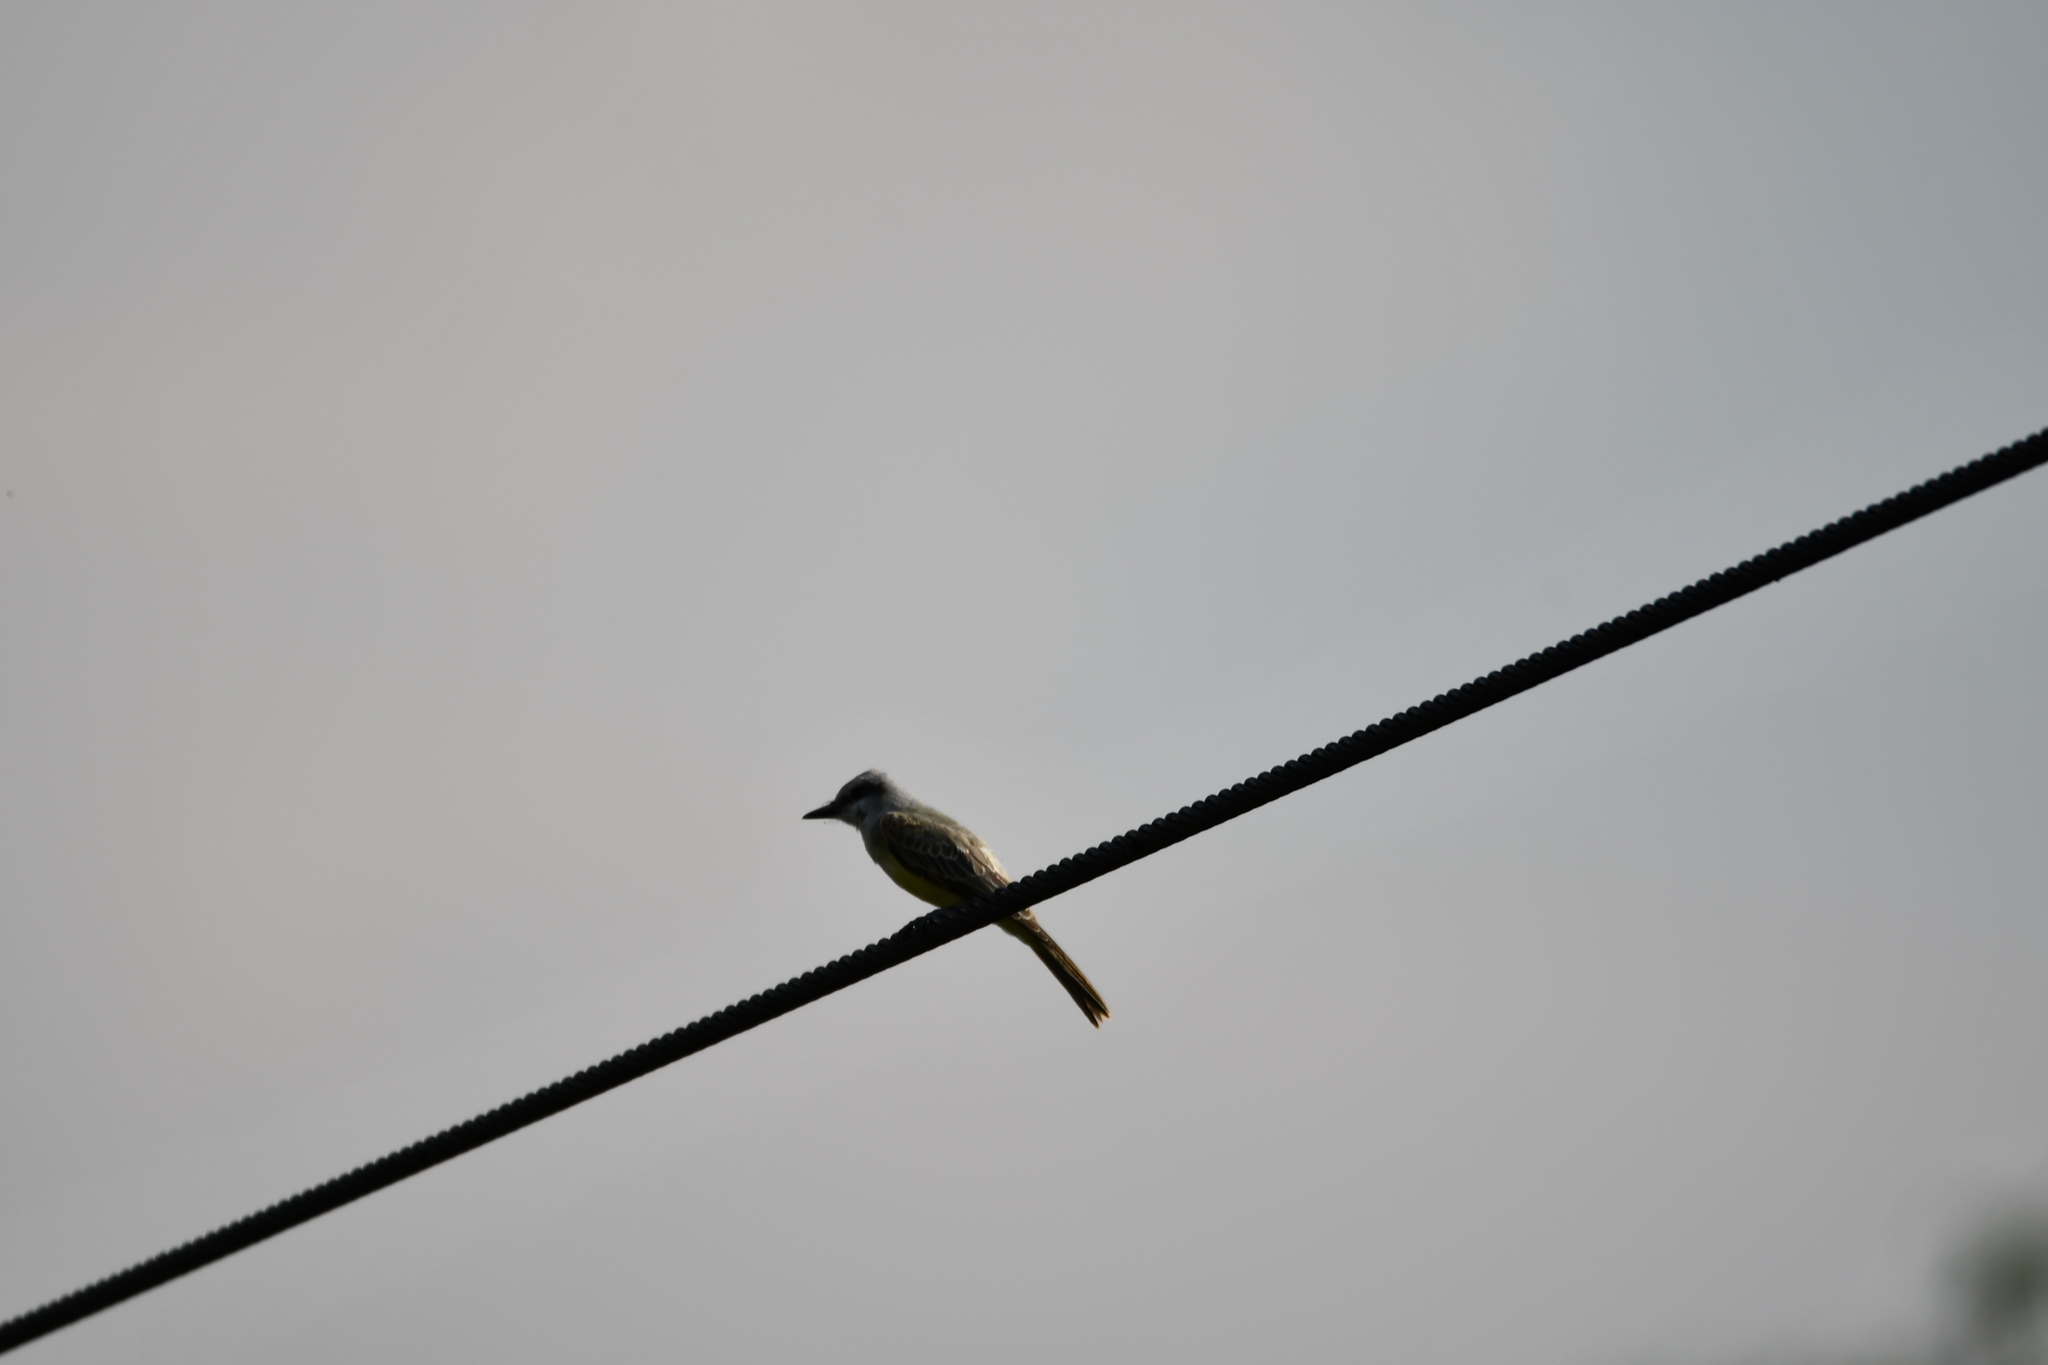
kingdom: Animalia
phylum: Chordata
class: Aves
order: Passeriformes
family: Tyrannidae
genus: Tyrannus
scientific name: Tyrannus melancholicus
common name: Tropical kingbird
